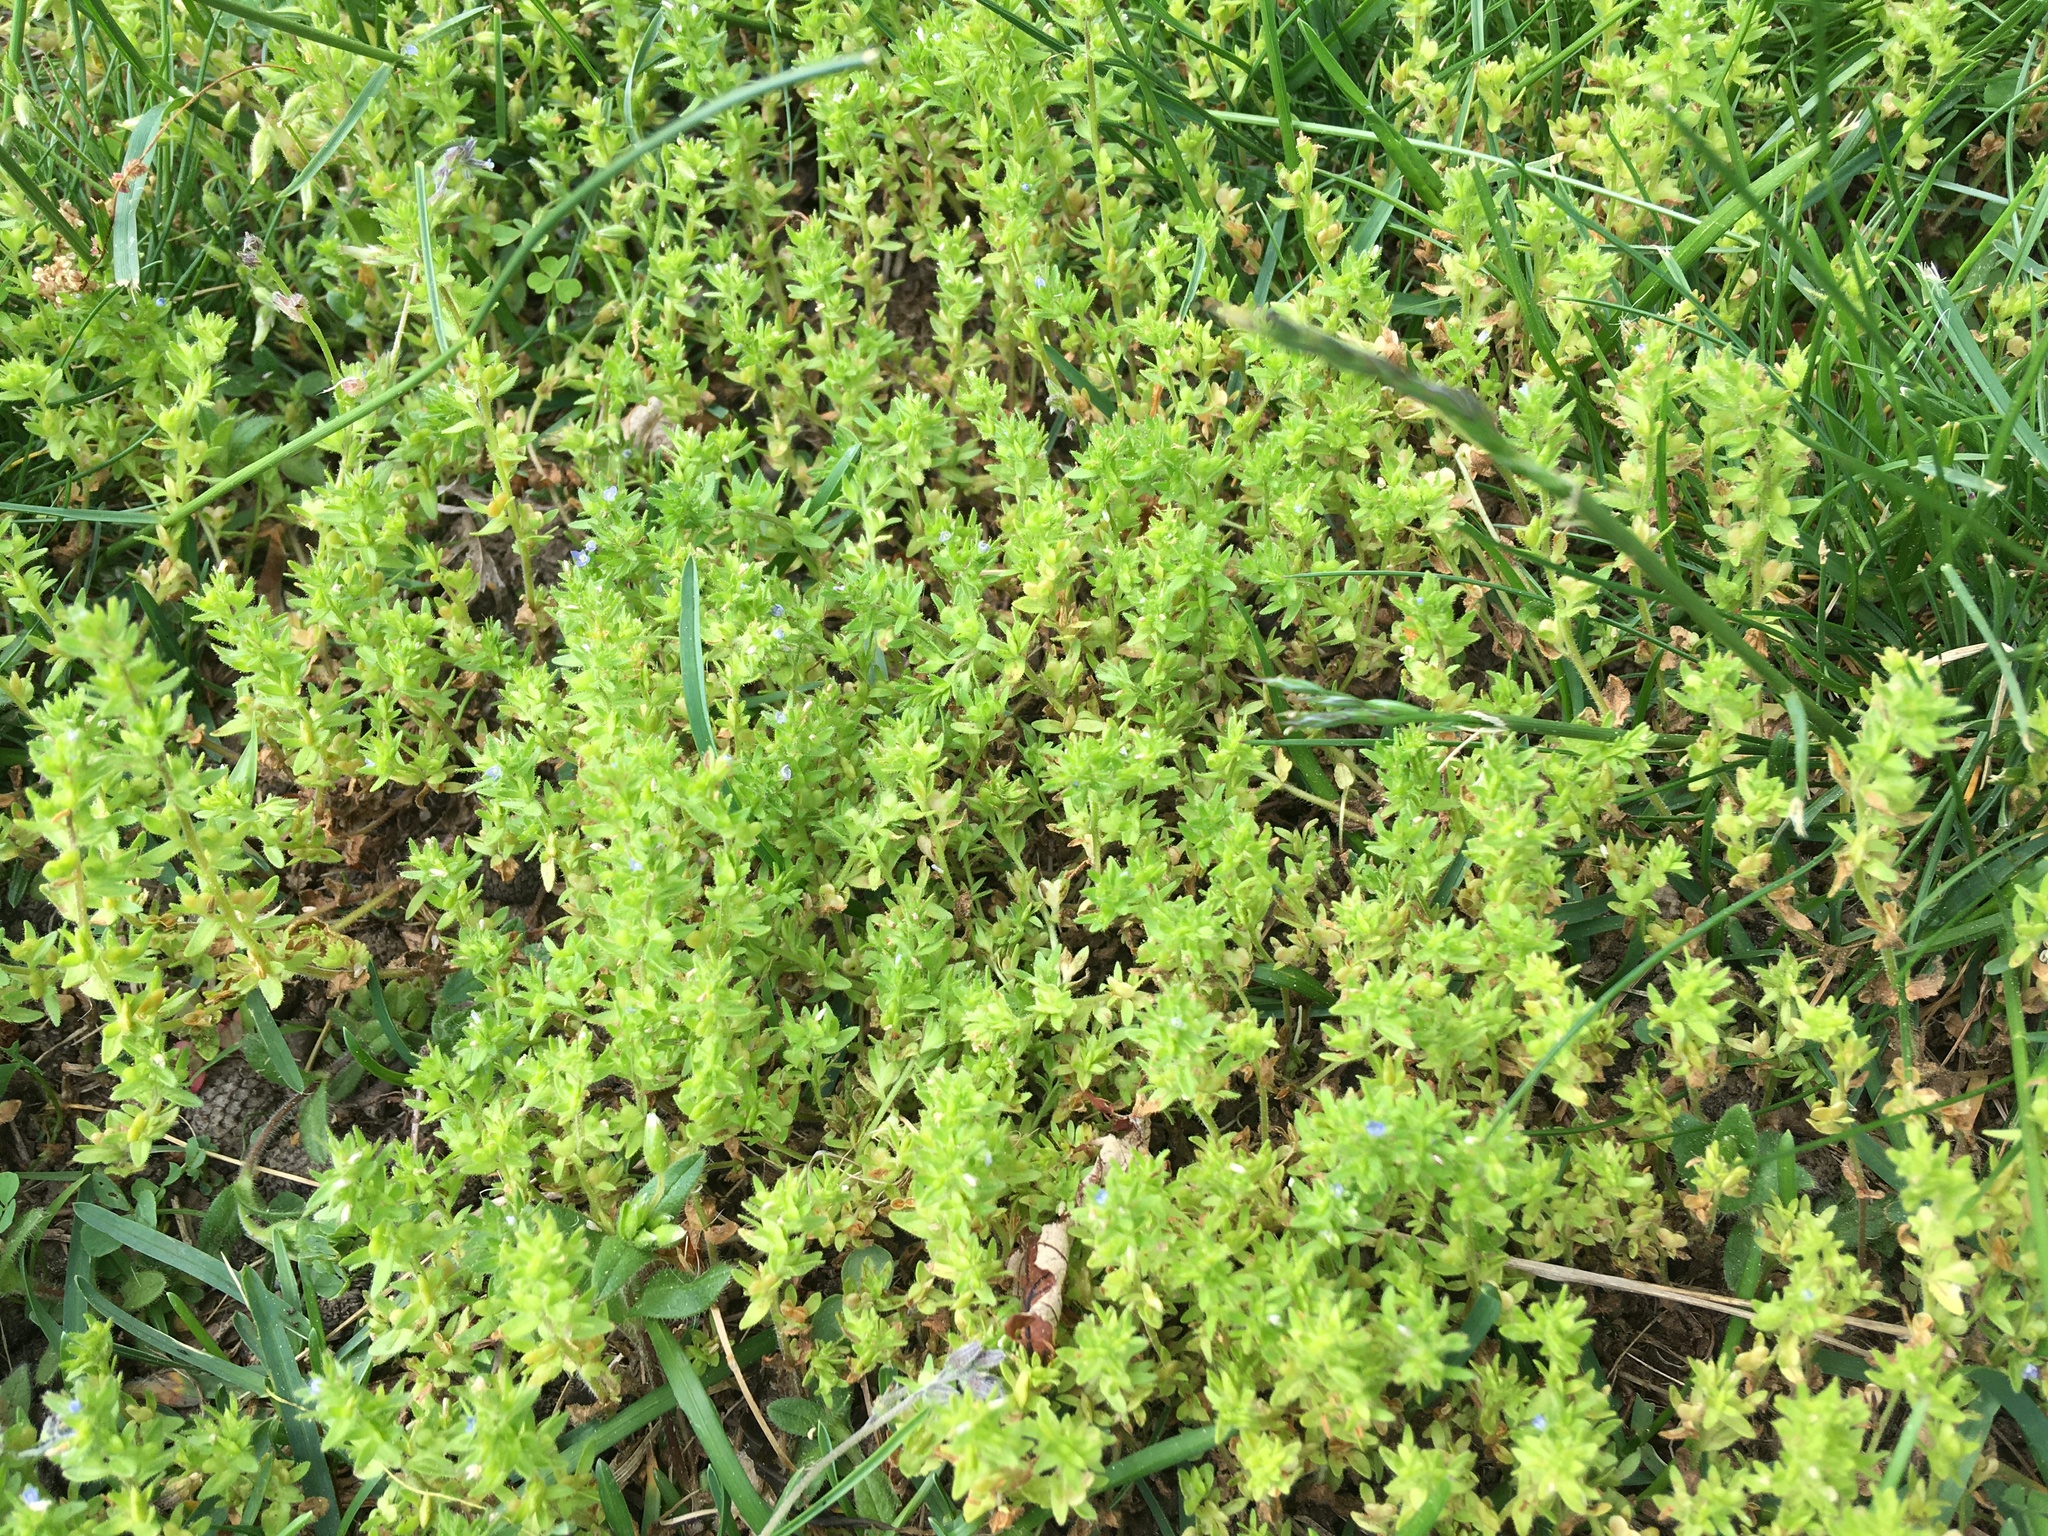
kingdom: Plantae
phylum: Tracheophyta
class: Magnoliopsida
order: Lamiales
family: Plantaginaceae
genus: Veronica
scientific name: Veronica arvensis
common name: Corn speedwell
